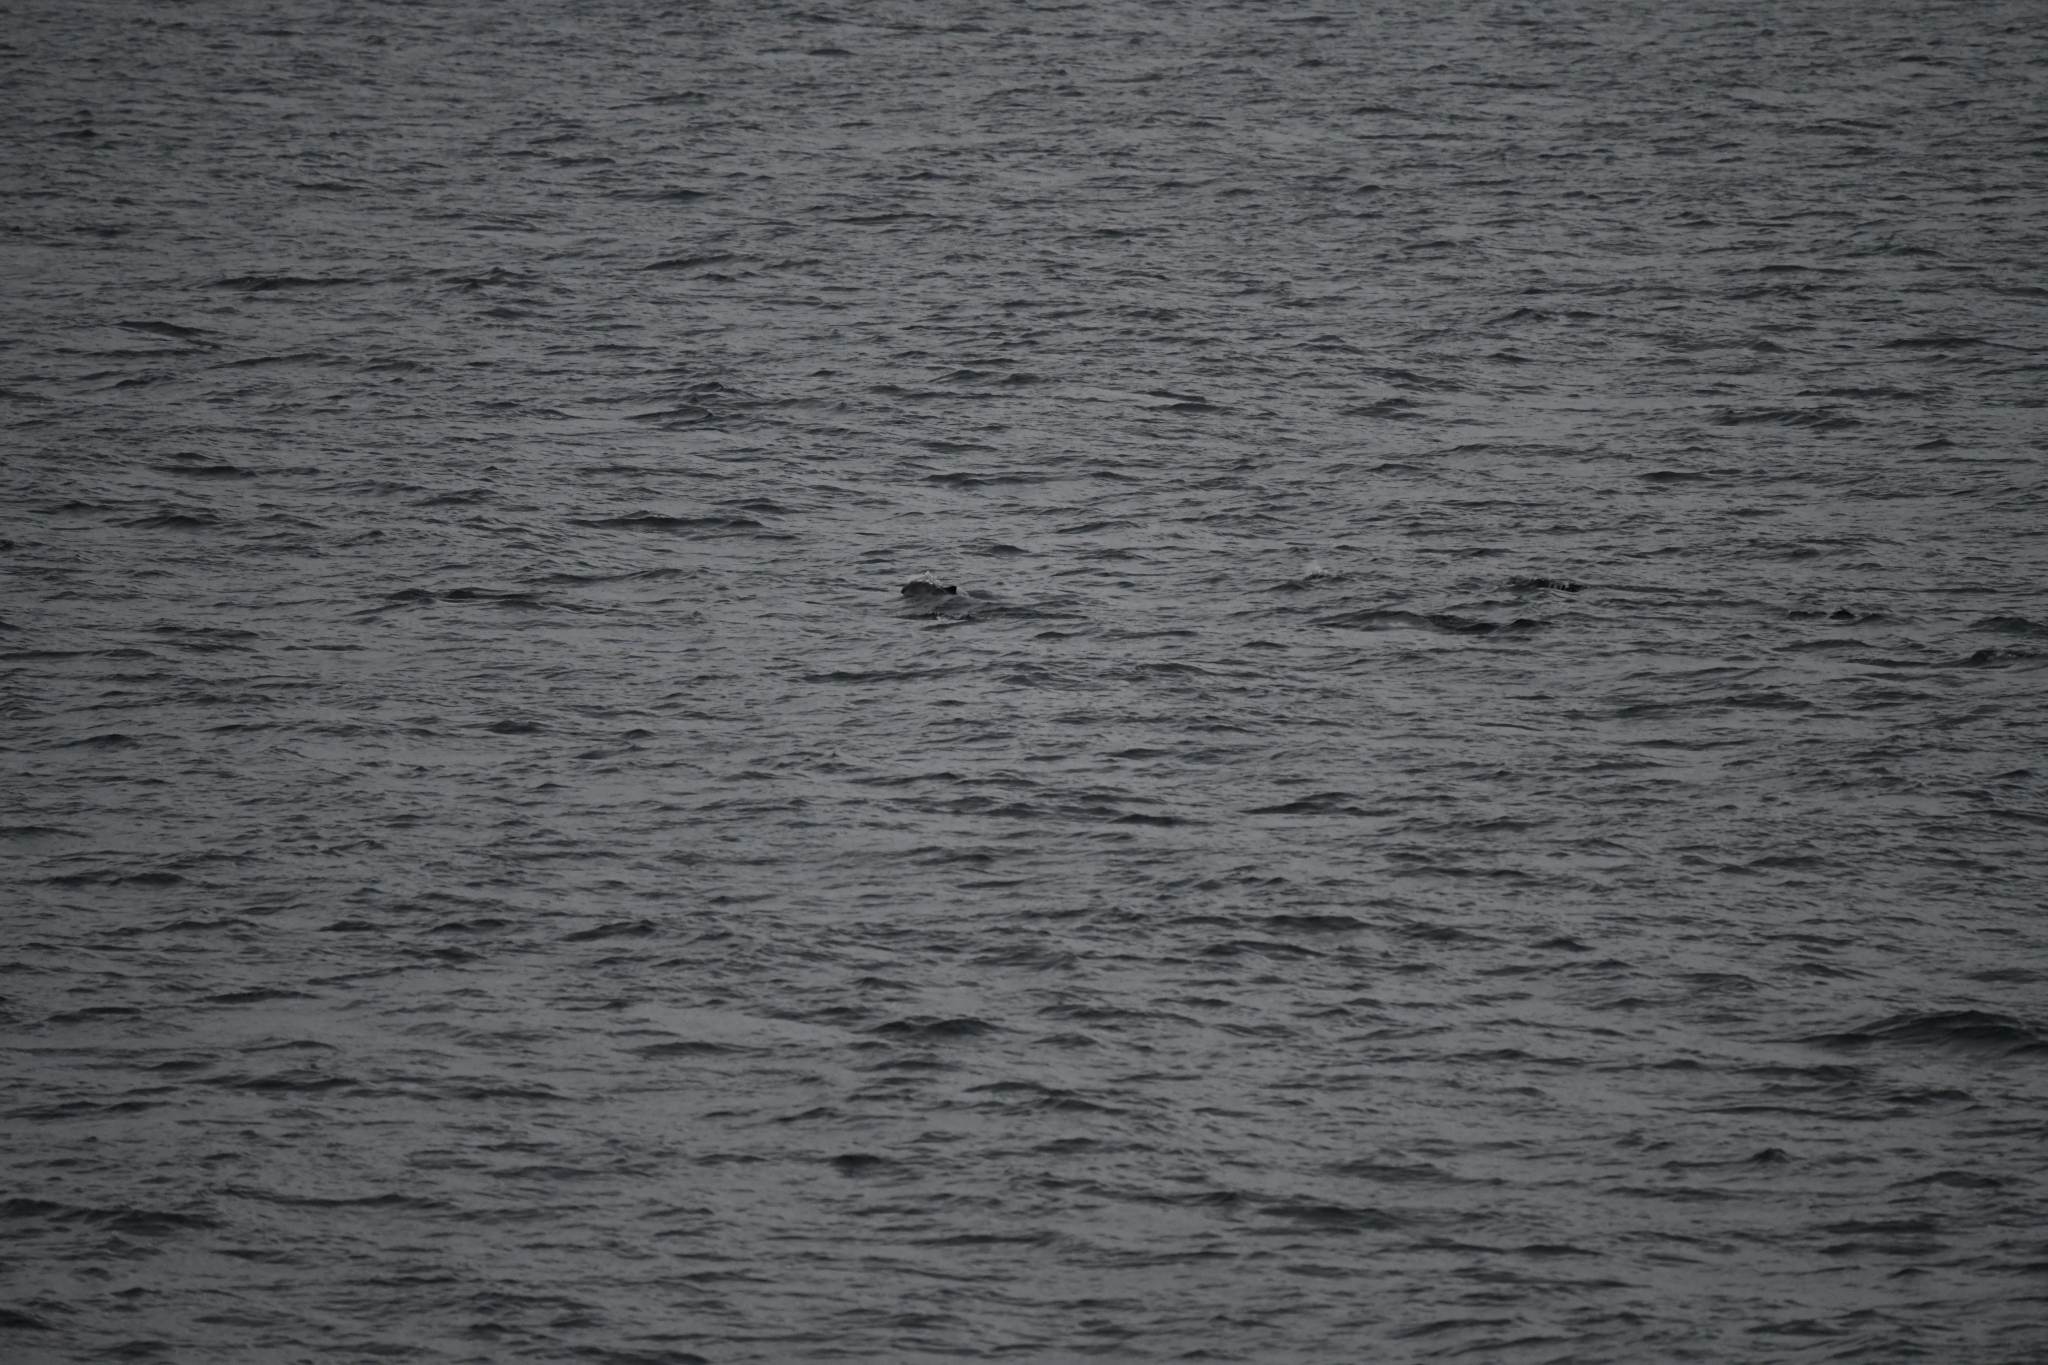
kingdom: Animalia
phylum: Chordata
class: Mammalia
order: Cetacea
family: Phocoenidae
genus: Phocoena
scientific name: Phocoena phocoena
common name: Harbor porpoise
